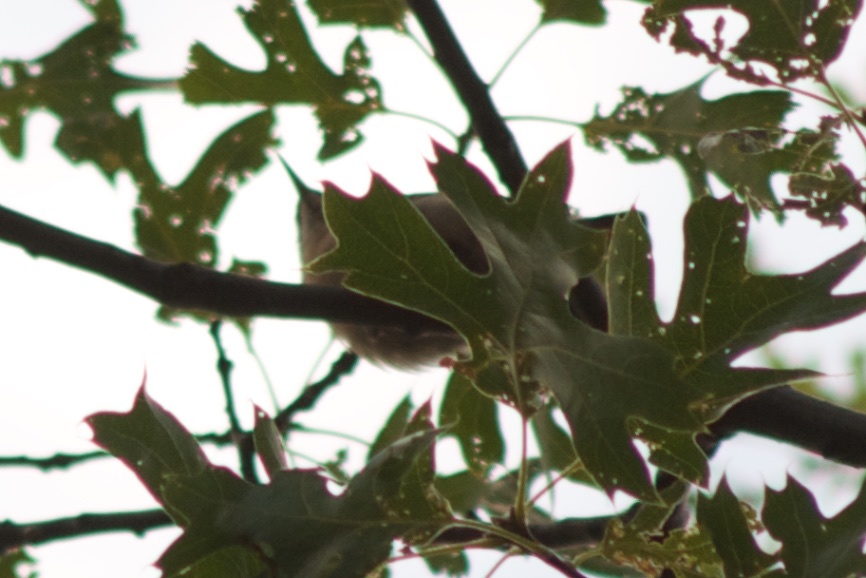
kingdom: Animalia
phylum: Chordata
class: Aves
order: Passeriformes
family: Sittidae
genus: Sitta
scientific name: Sitta pygmaea
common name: Pygmy nuthatch
